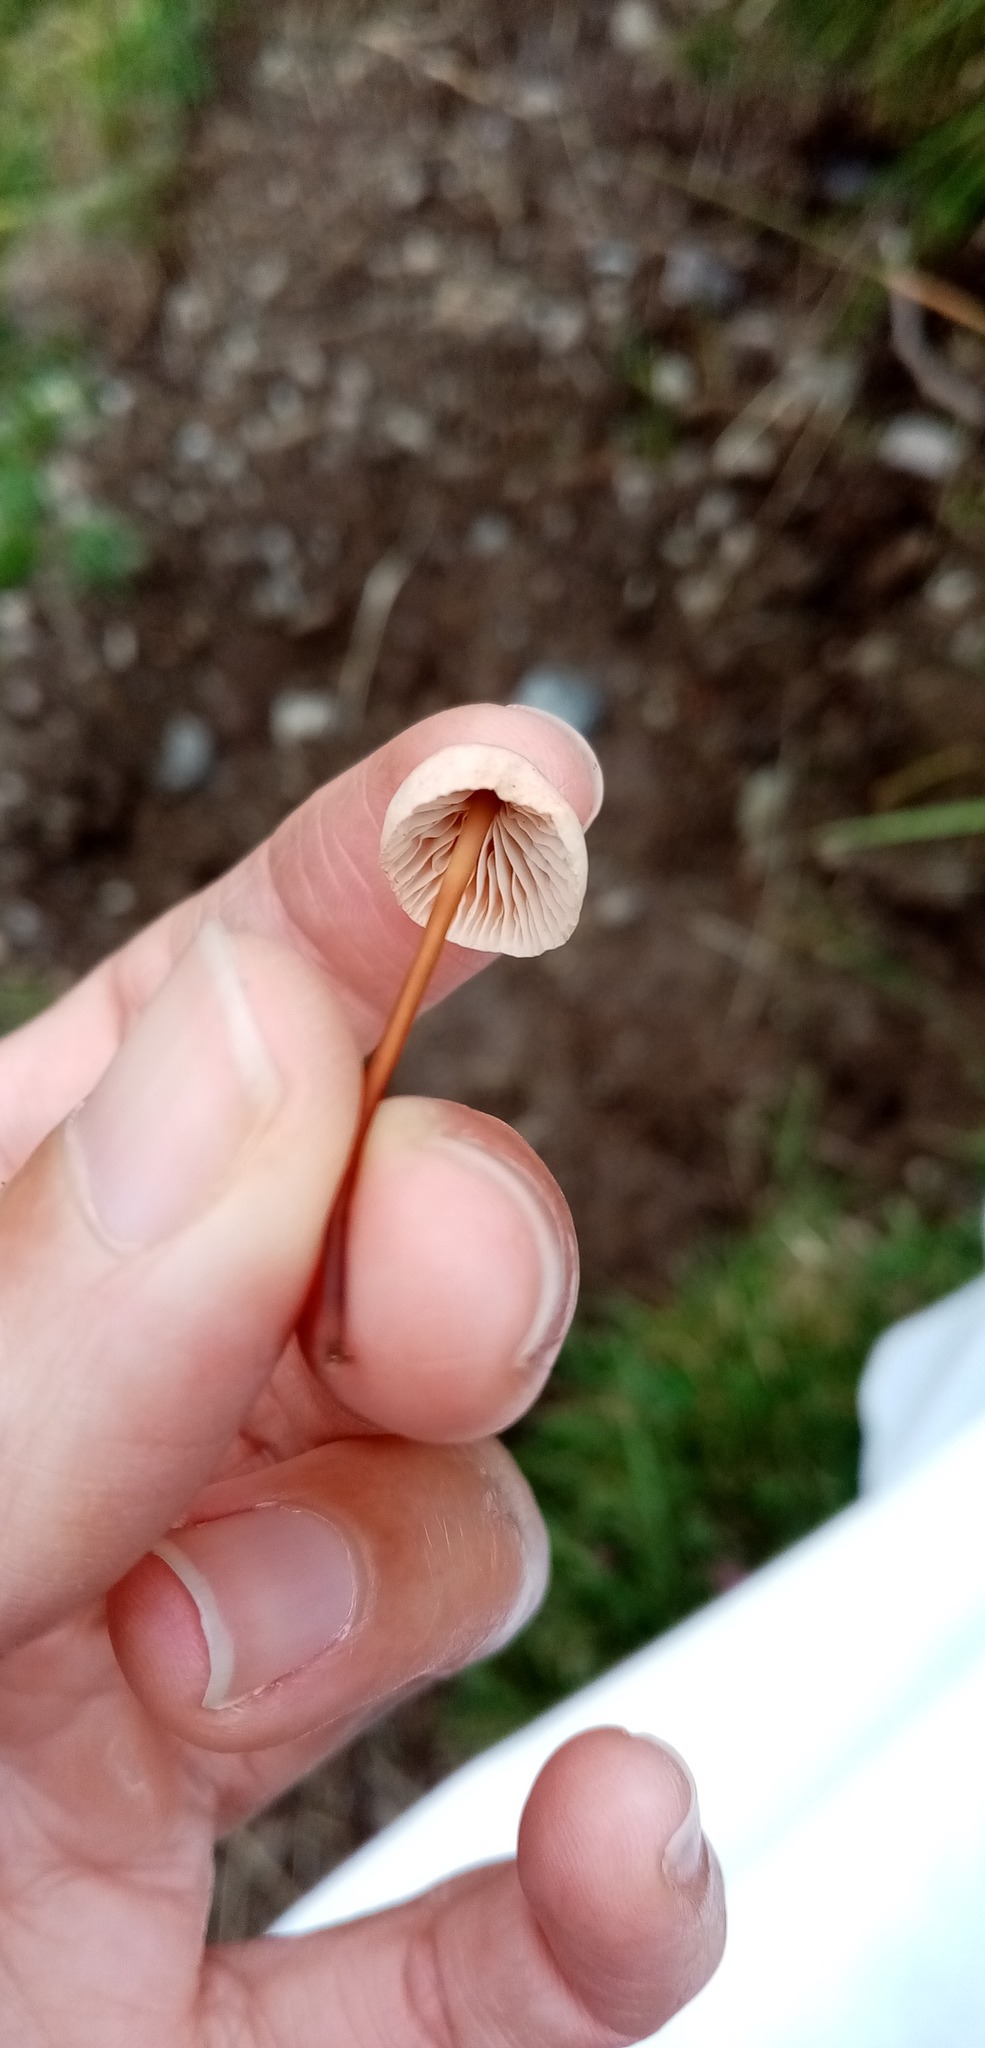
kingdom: Fungi
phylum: Basidiomycota
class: Agaricomycetes
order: Agaricales
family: Omphalotaceae
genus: Mycetinis
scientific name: Mycetinis scorodonius
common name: Vampires bane
